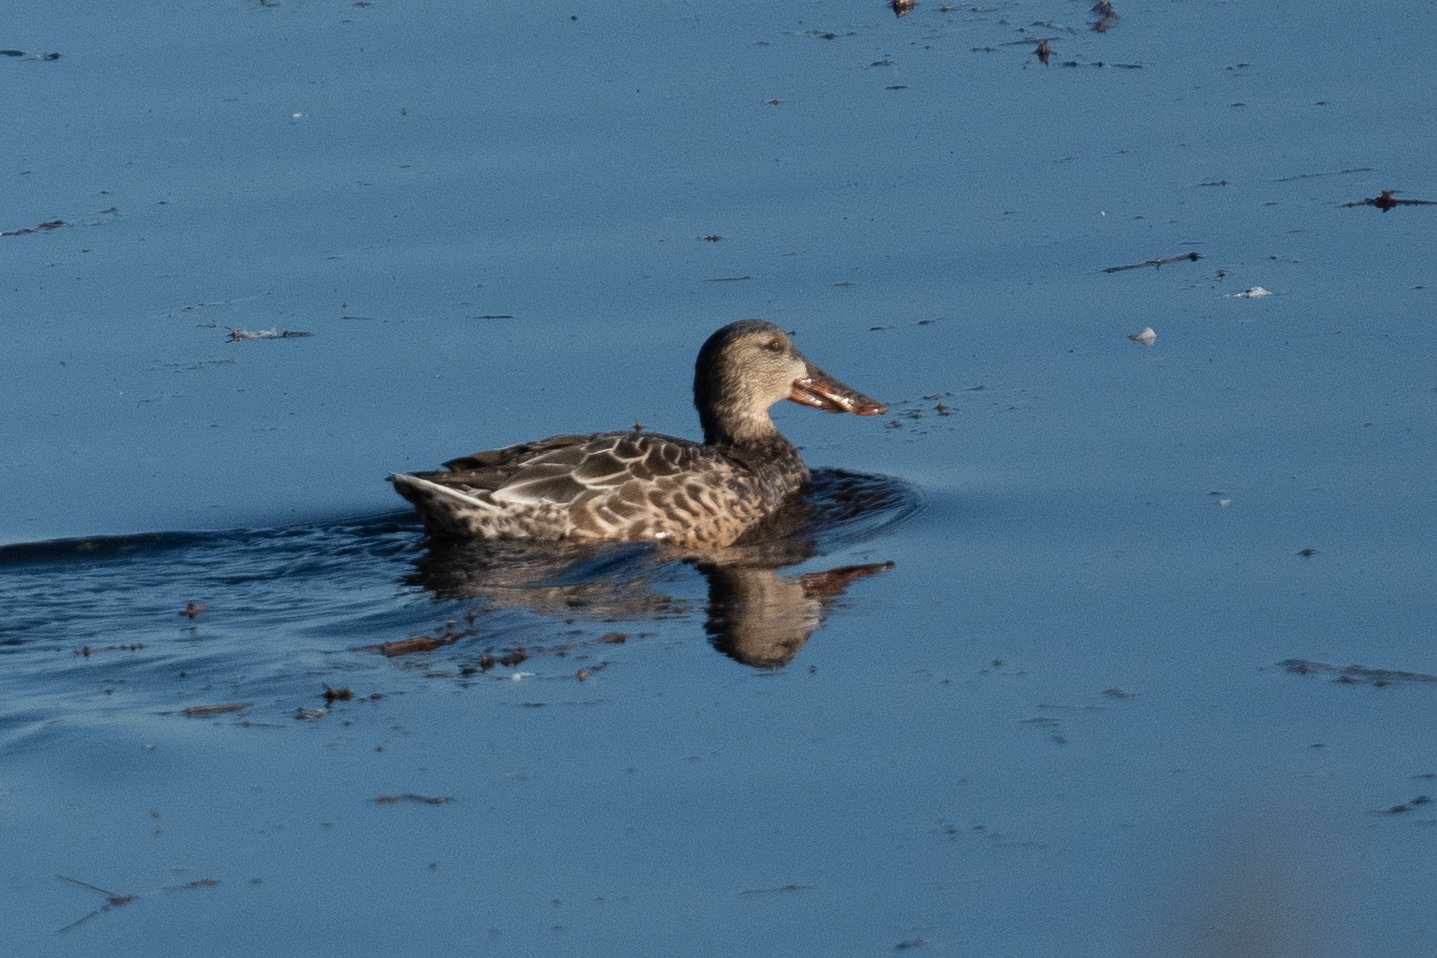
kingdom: Animalia
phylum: Chordata
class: Aves
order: Anseriformes
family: Anatidae
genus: Spatula
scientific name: Spatula clypeata
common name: Northern shoveler
